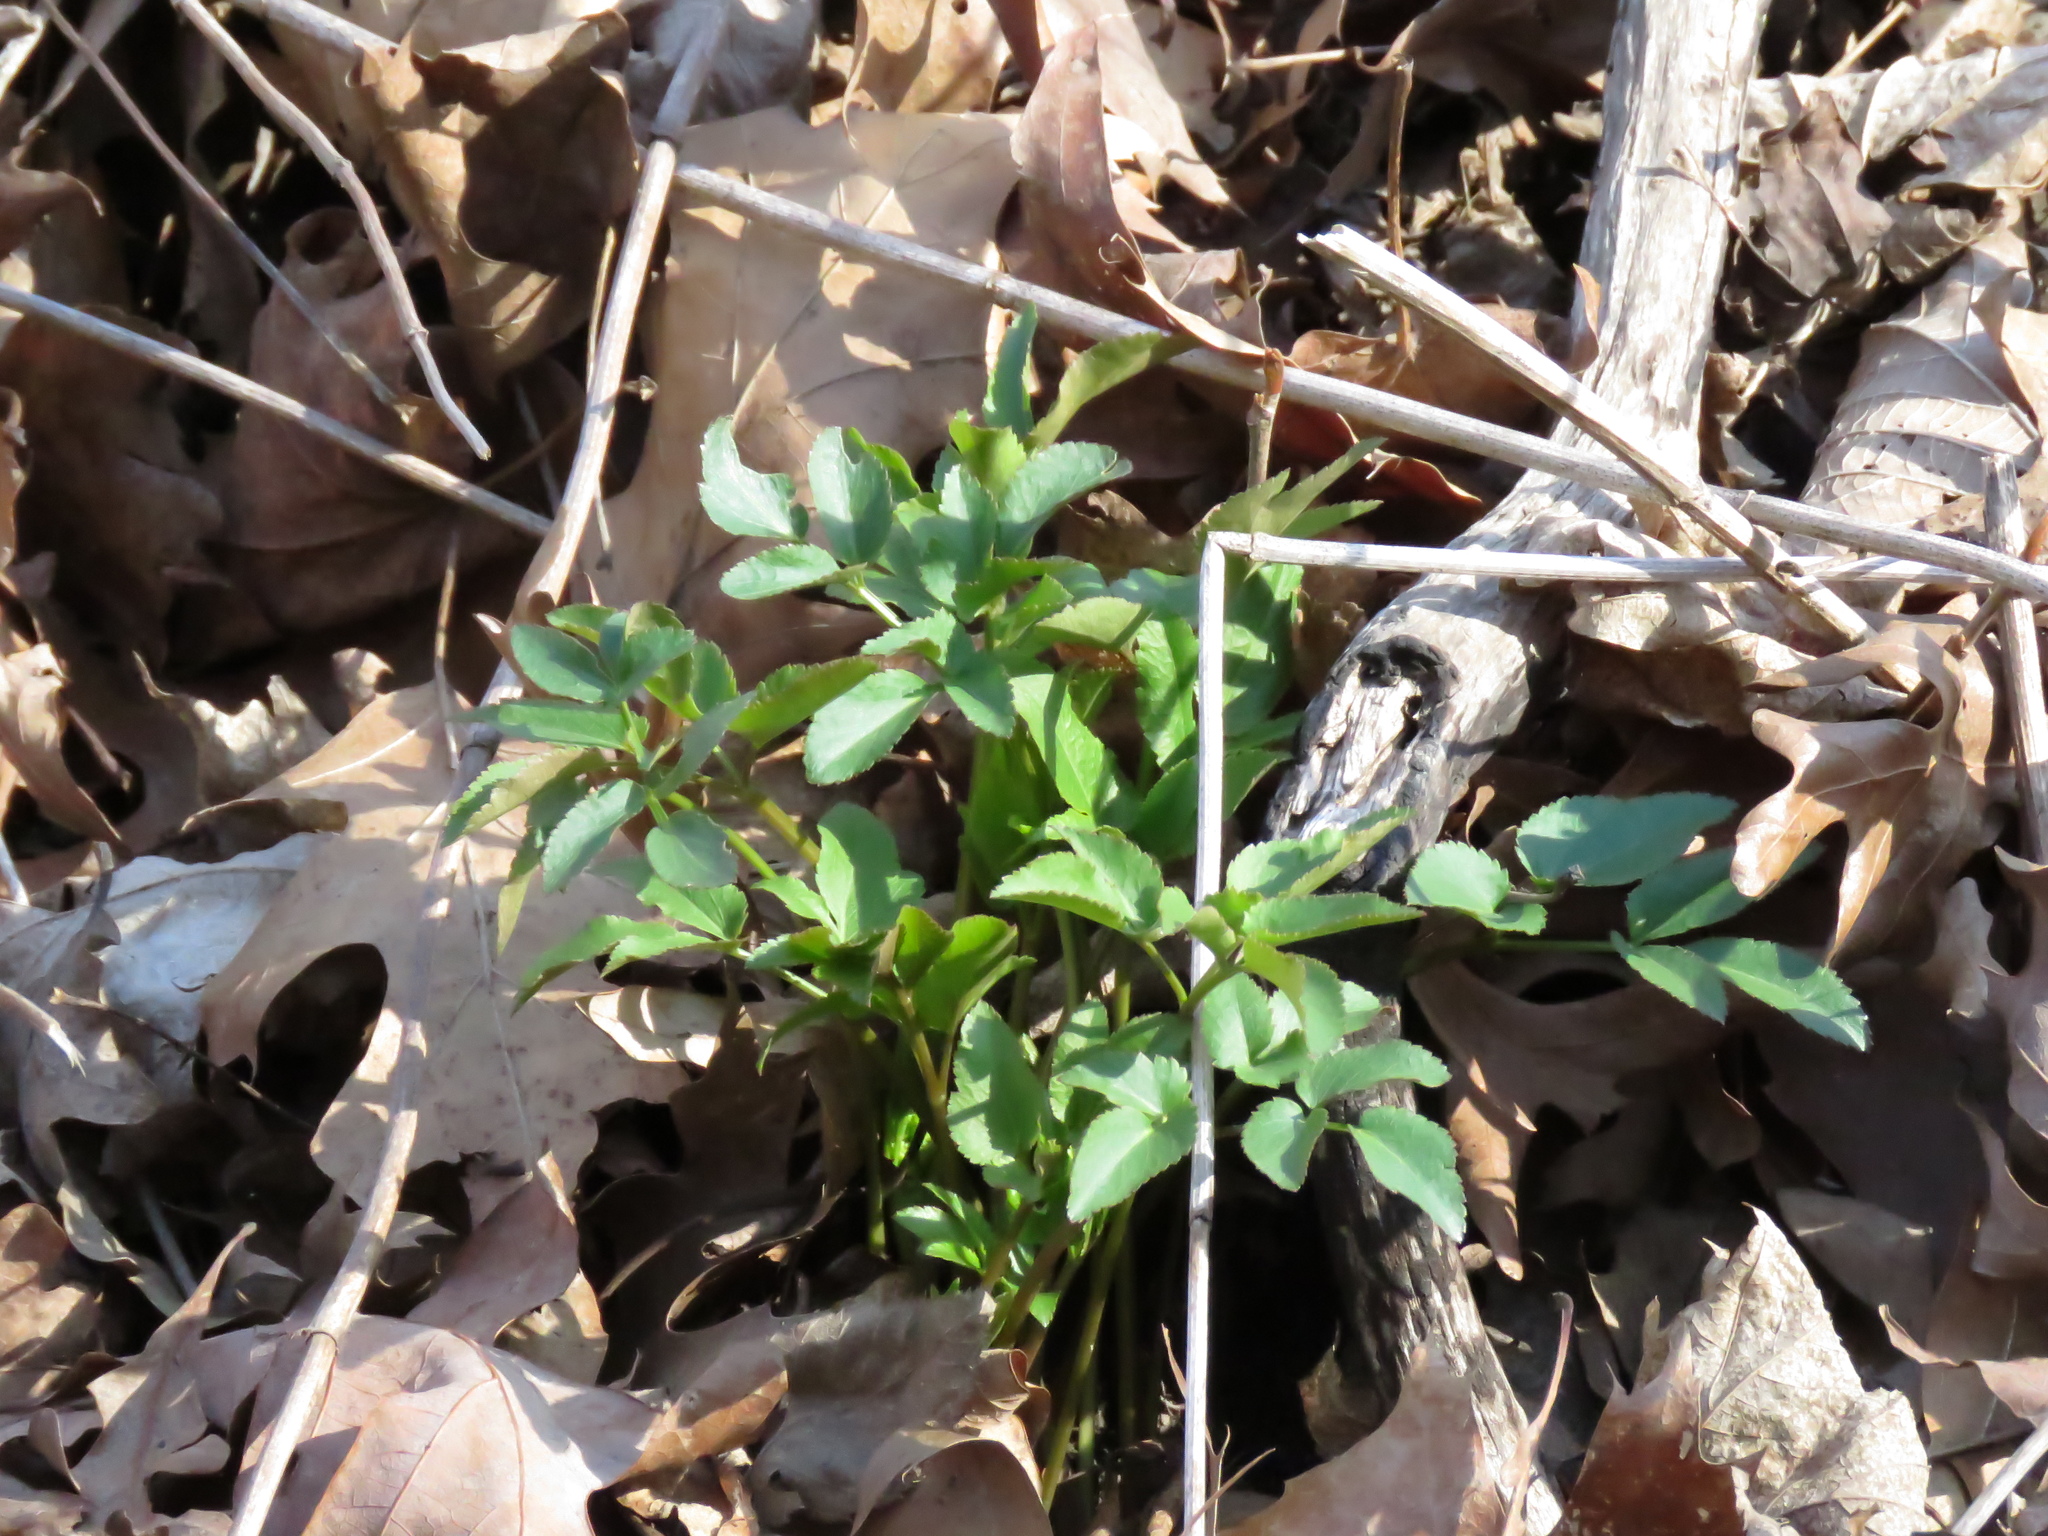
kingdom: Plantae
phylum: Tracheophyta
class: Magnoliopsida
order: Apiales
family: Apiaceae
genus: Zizia
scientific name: Zizia aurea
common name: Golden alexanders
